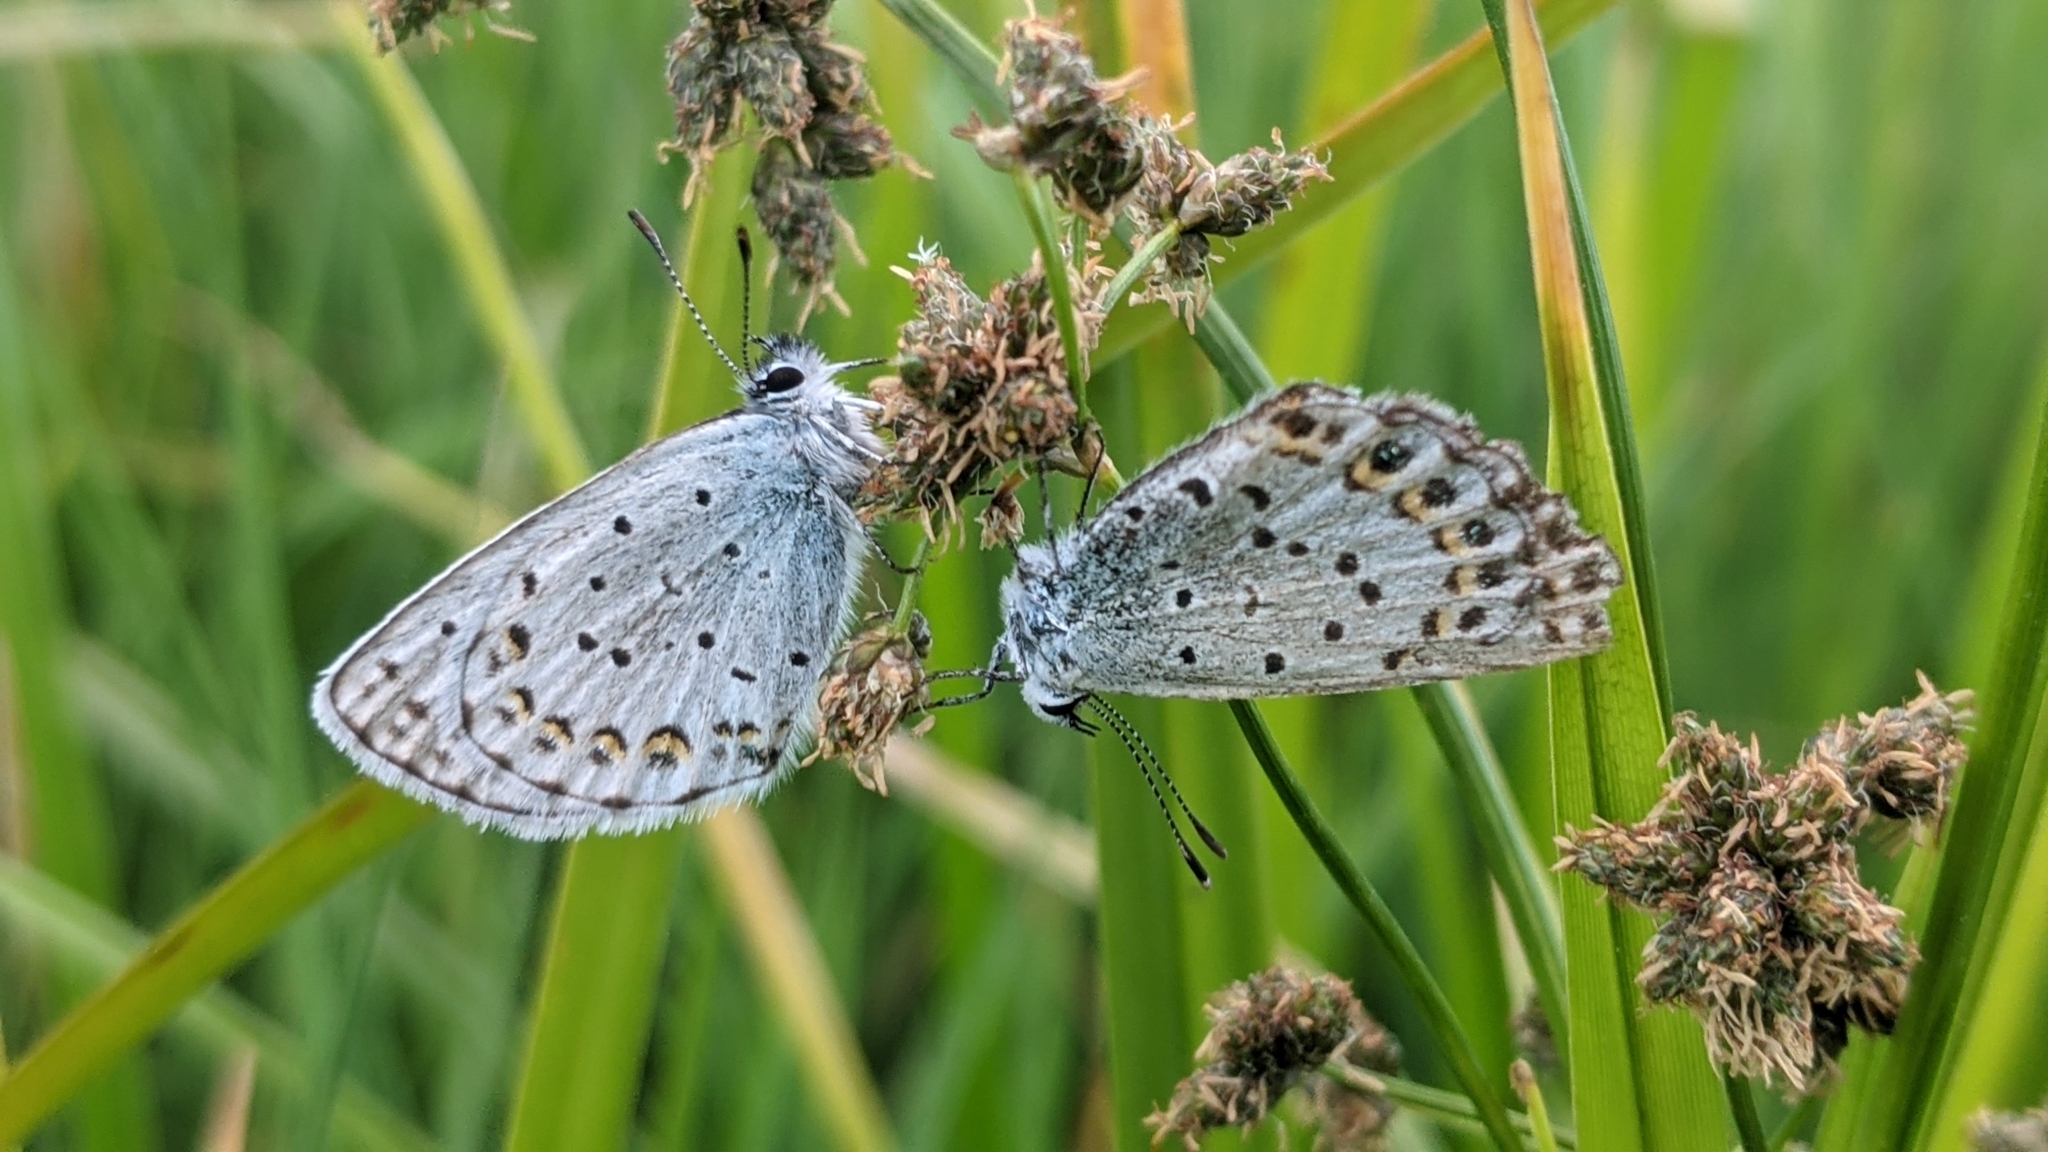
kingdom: Animalia
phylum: Arthropoda
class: Insecta
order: Lepidoptera
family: Lycaenidae
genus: Lycaeides
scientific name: Lycaeides anna
